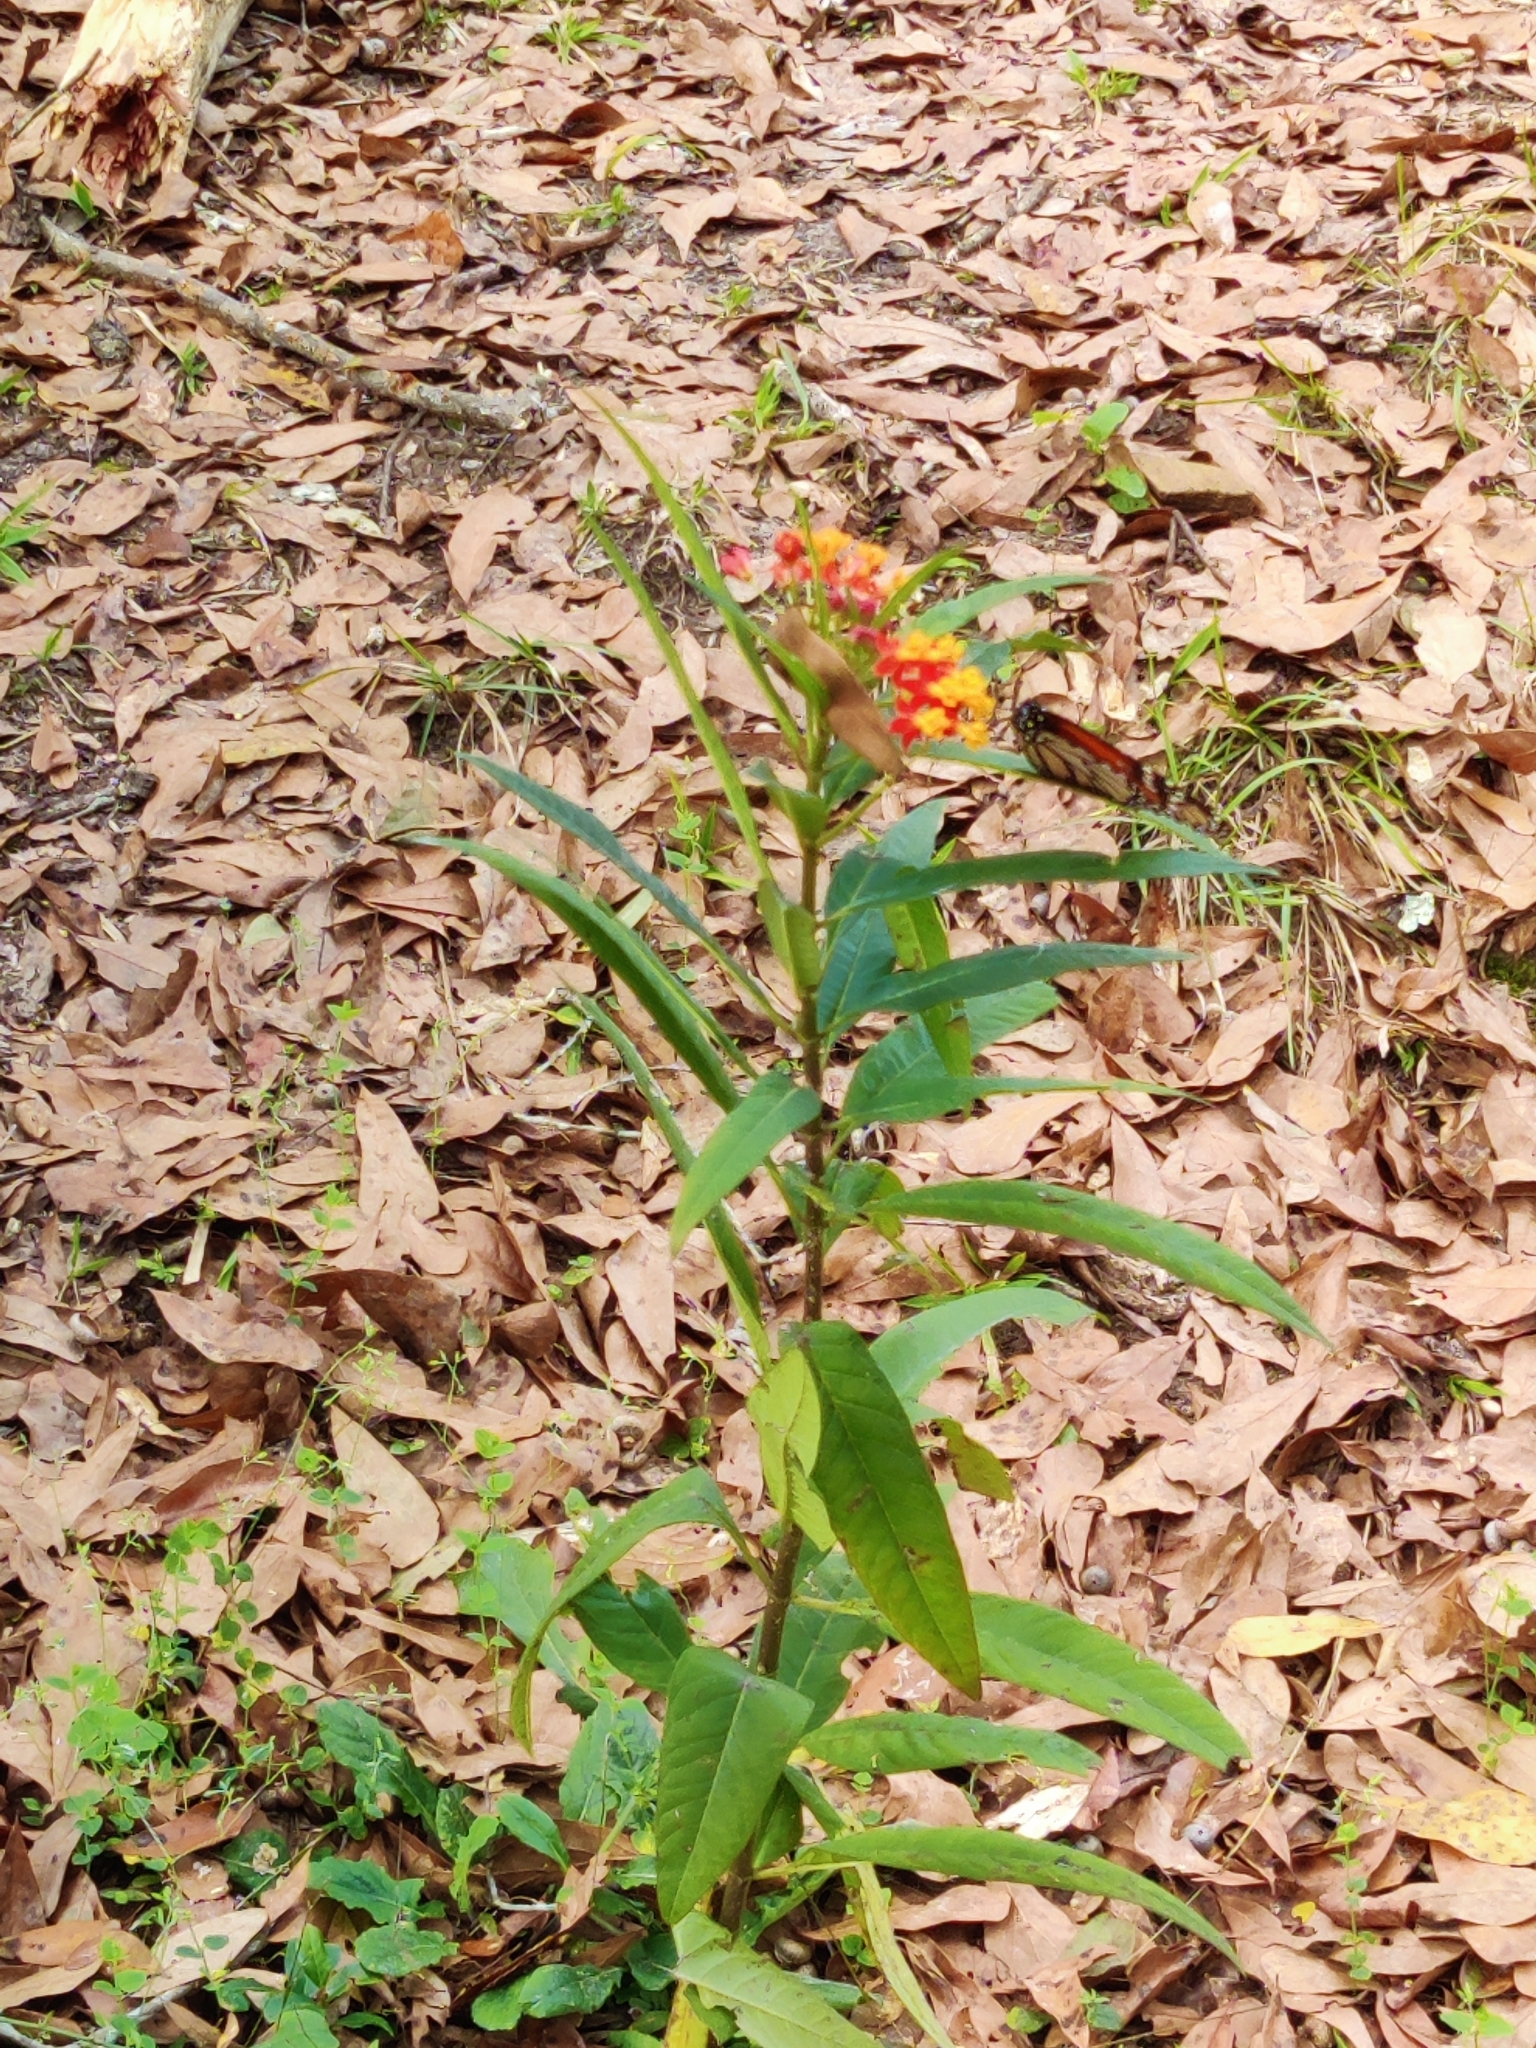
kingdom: Plantae
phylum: Tracheophyta
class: Magnoliopsida
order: Gentianales
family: Apocynaceae
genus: Asclepias
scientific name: Asclepias curassavica
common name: Bloodflower
